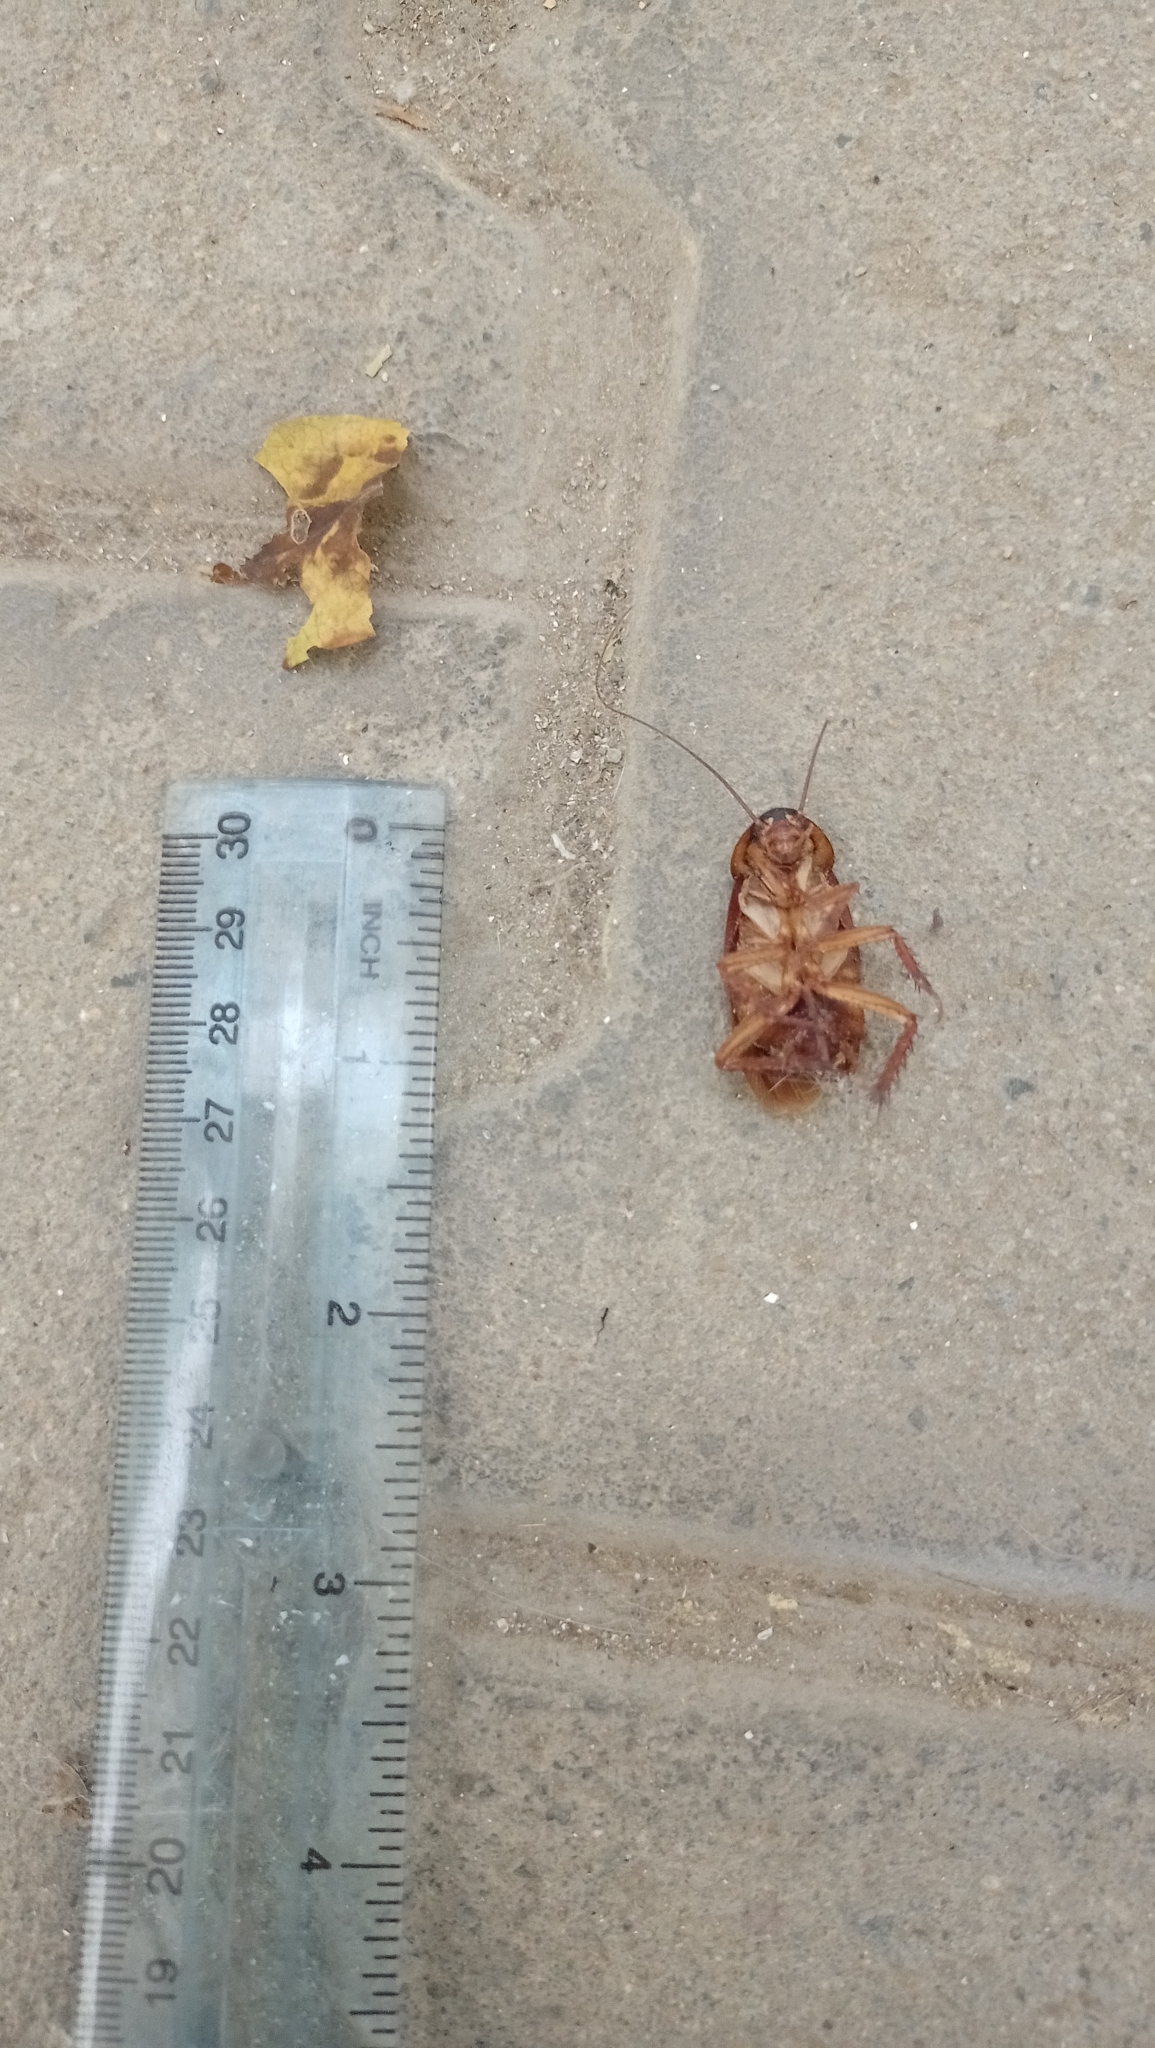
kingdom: Animalia
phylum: Arthropoda
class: Insecta
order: Blattodea
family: Blattidae
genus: Periplaneta
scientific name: Periplaneta americana
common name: American cockroach
